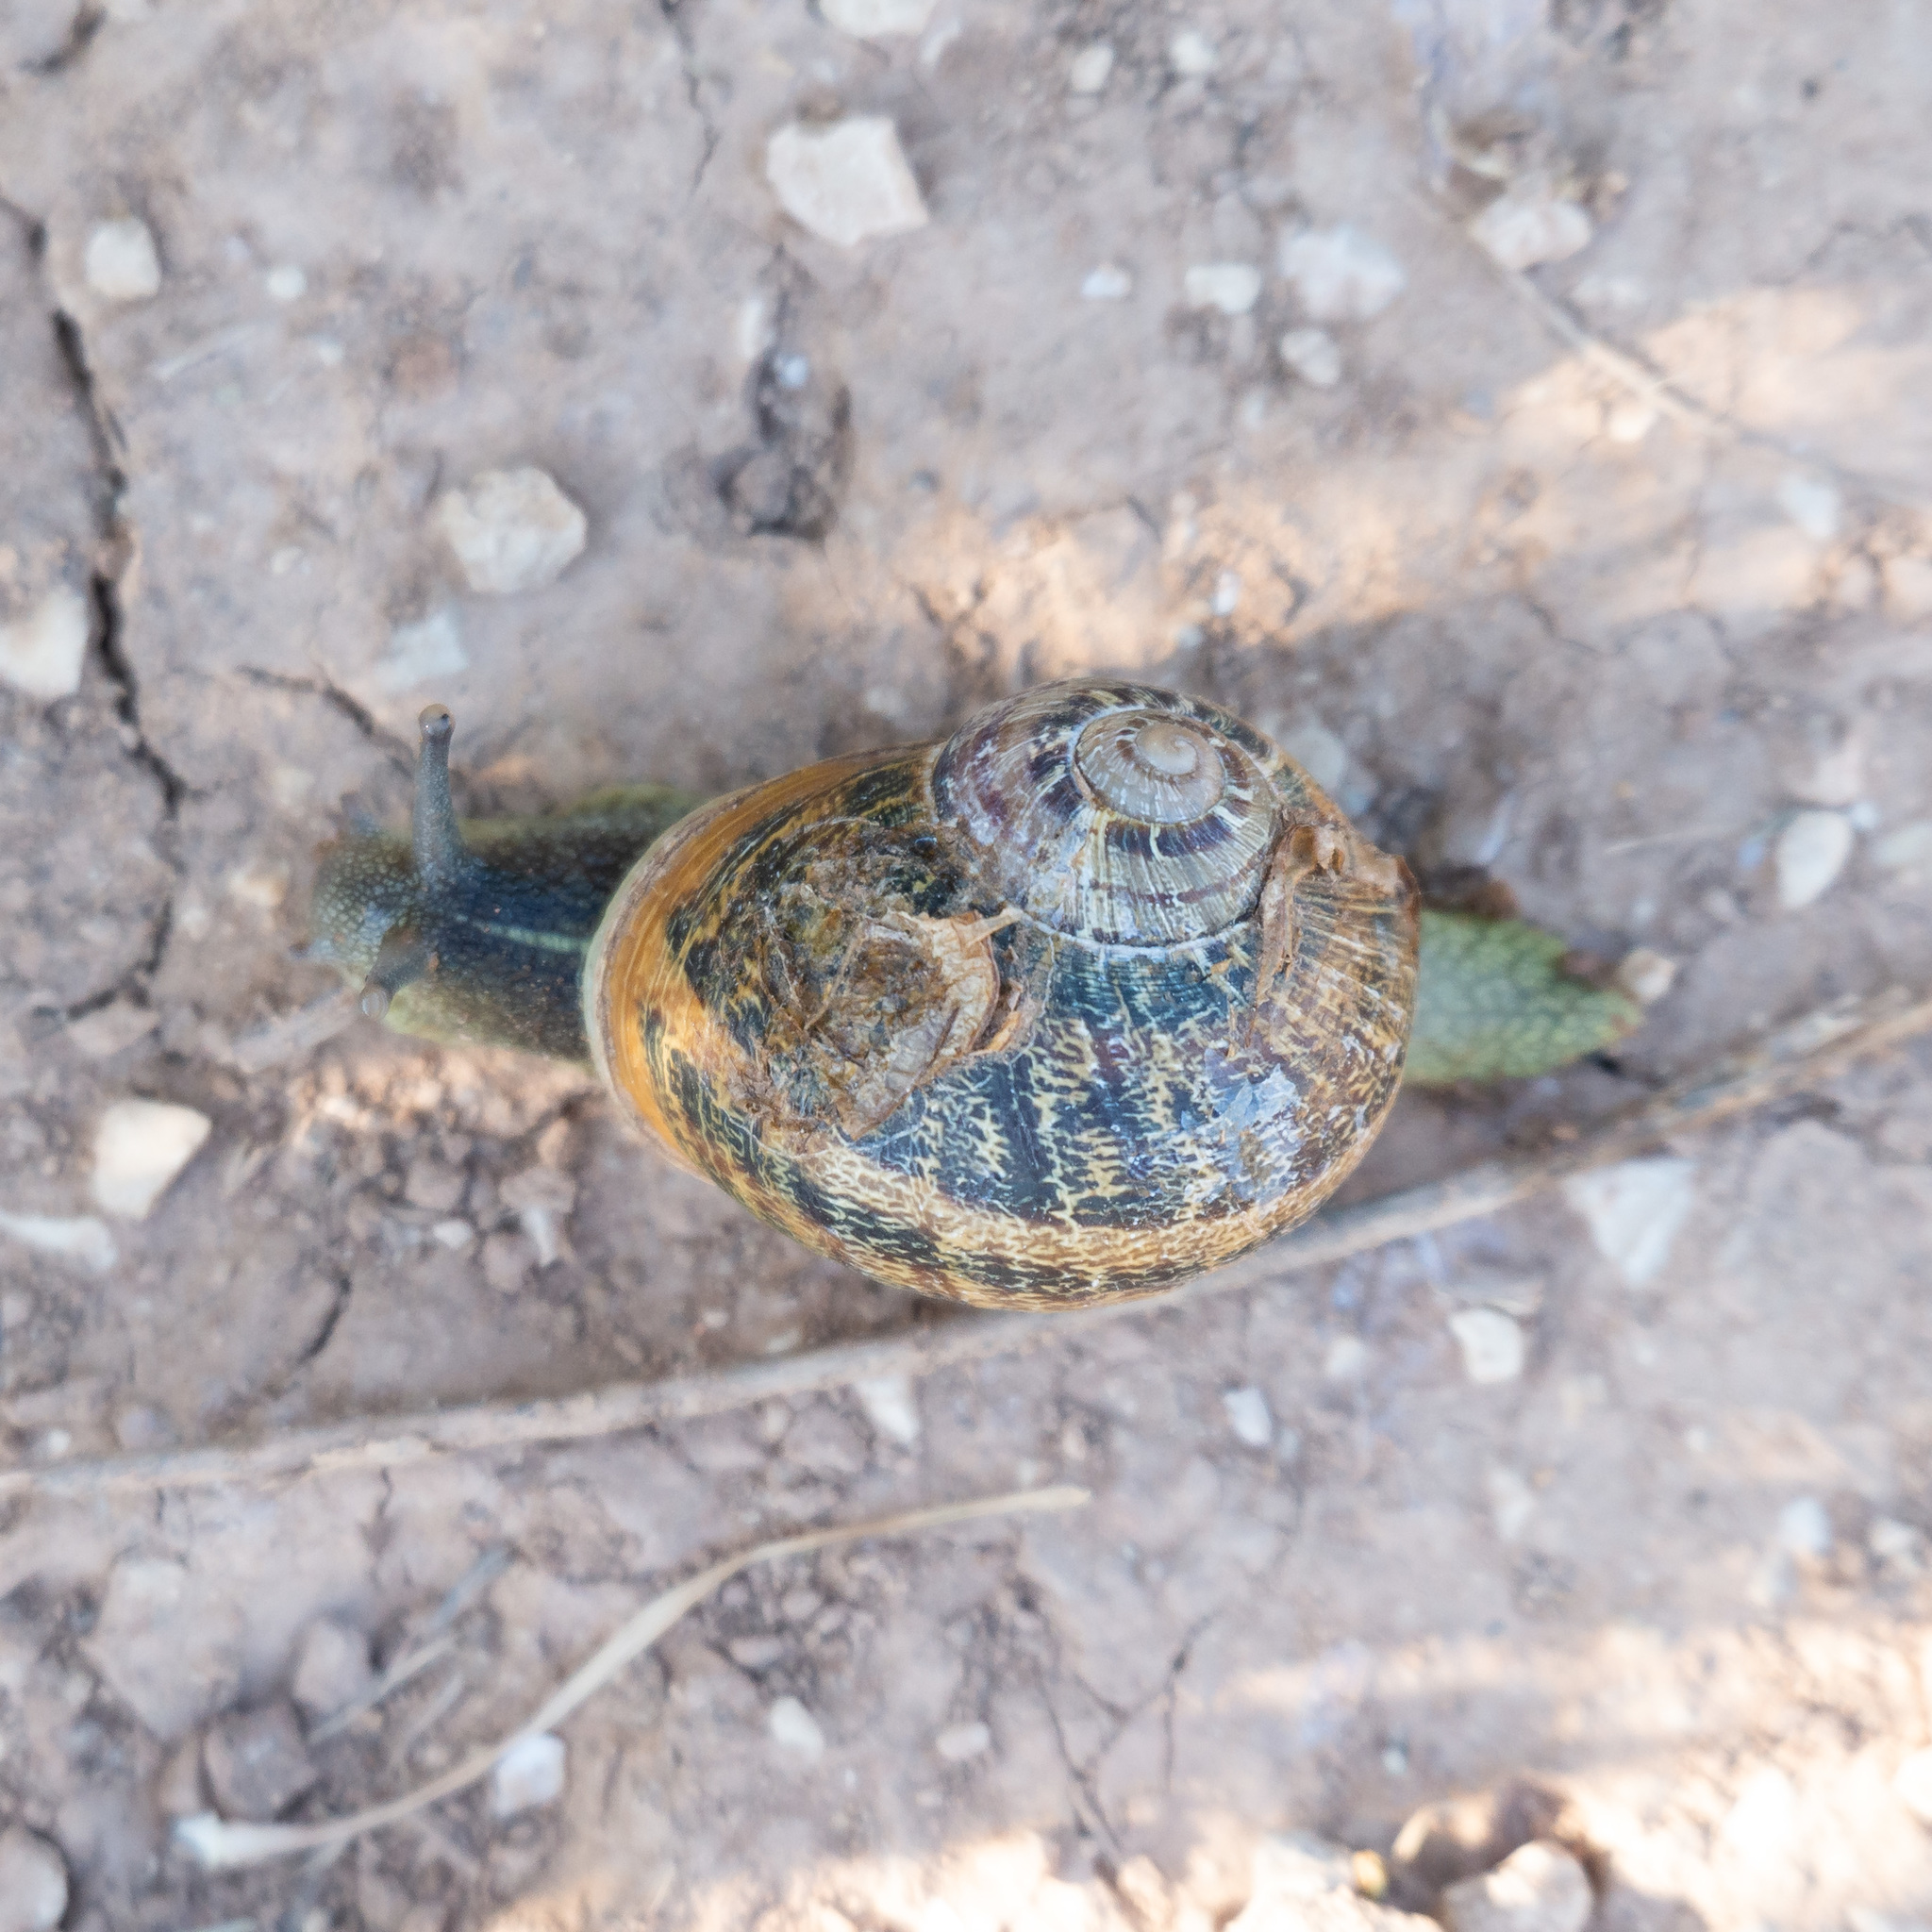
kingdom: Animalia
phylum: Mollusca
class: Gastropoda
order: Stylommatophora
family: Helicidae
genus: Cornu
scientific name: Cornu aspersum
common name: Brown garden snail
